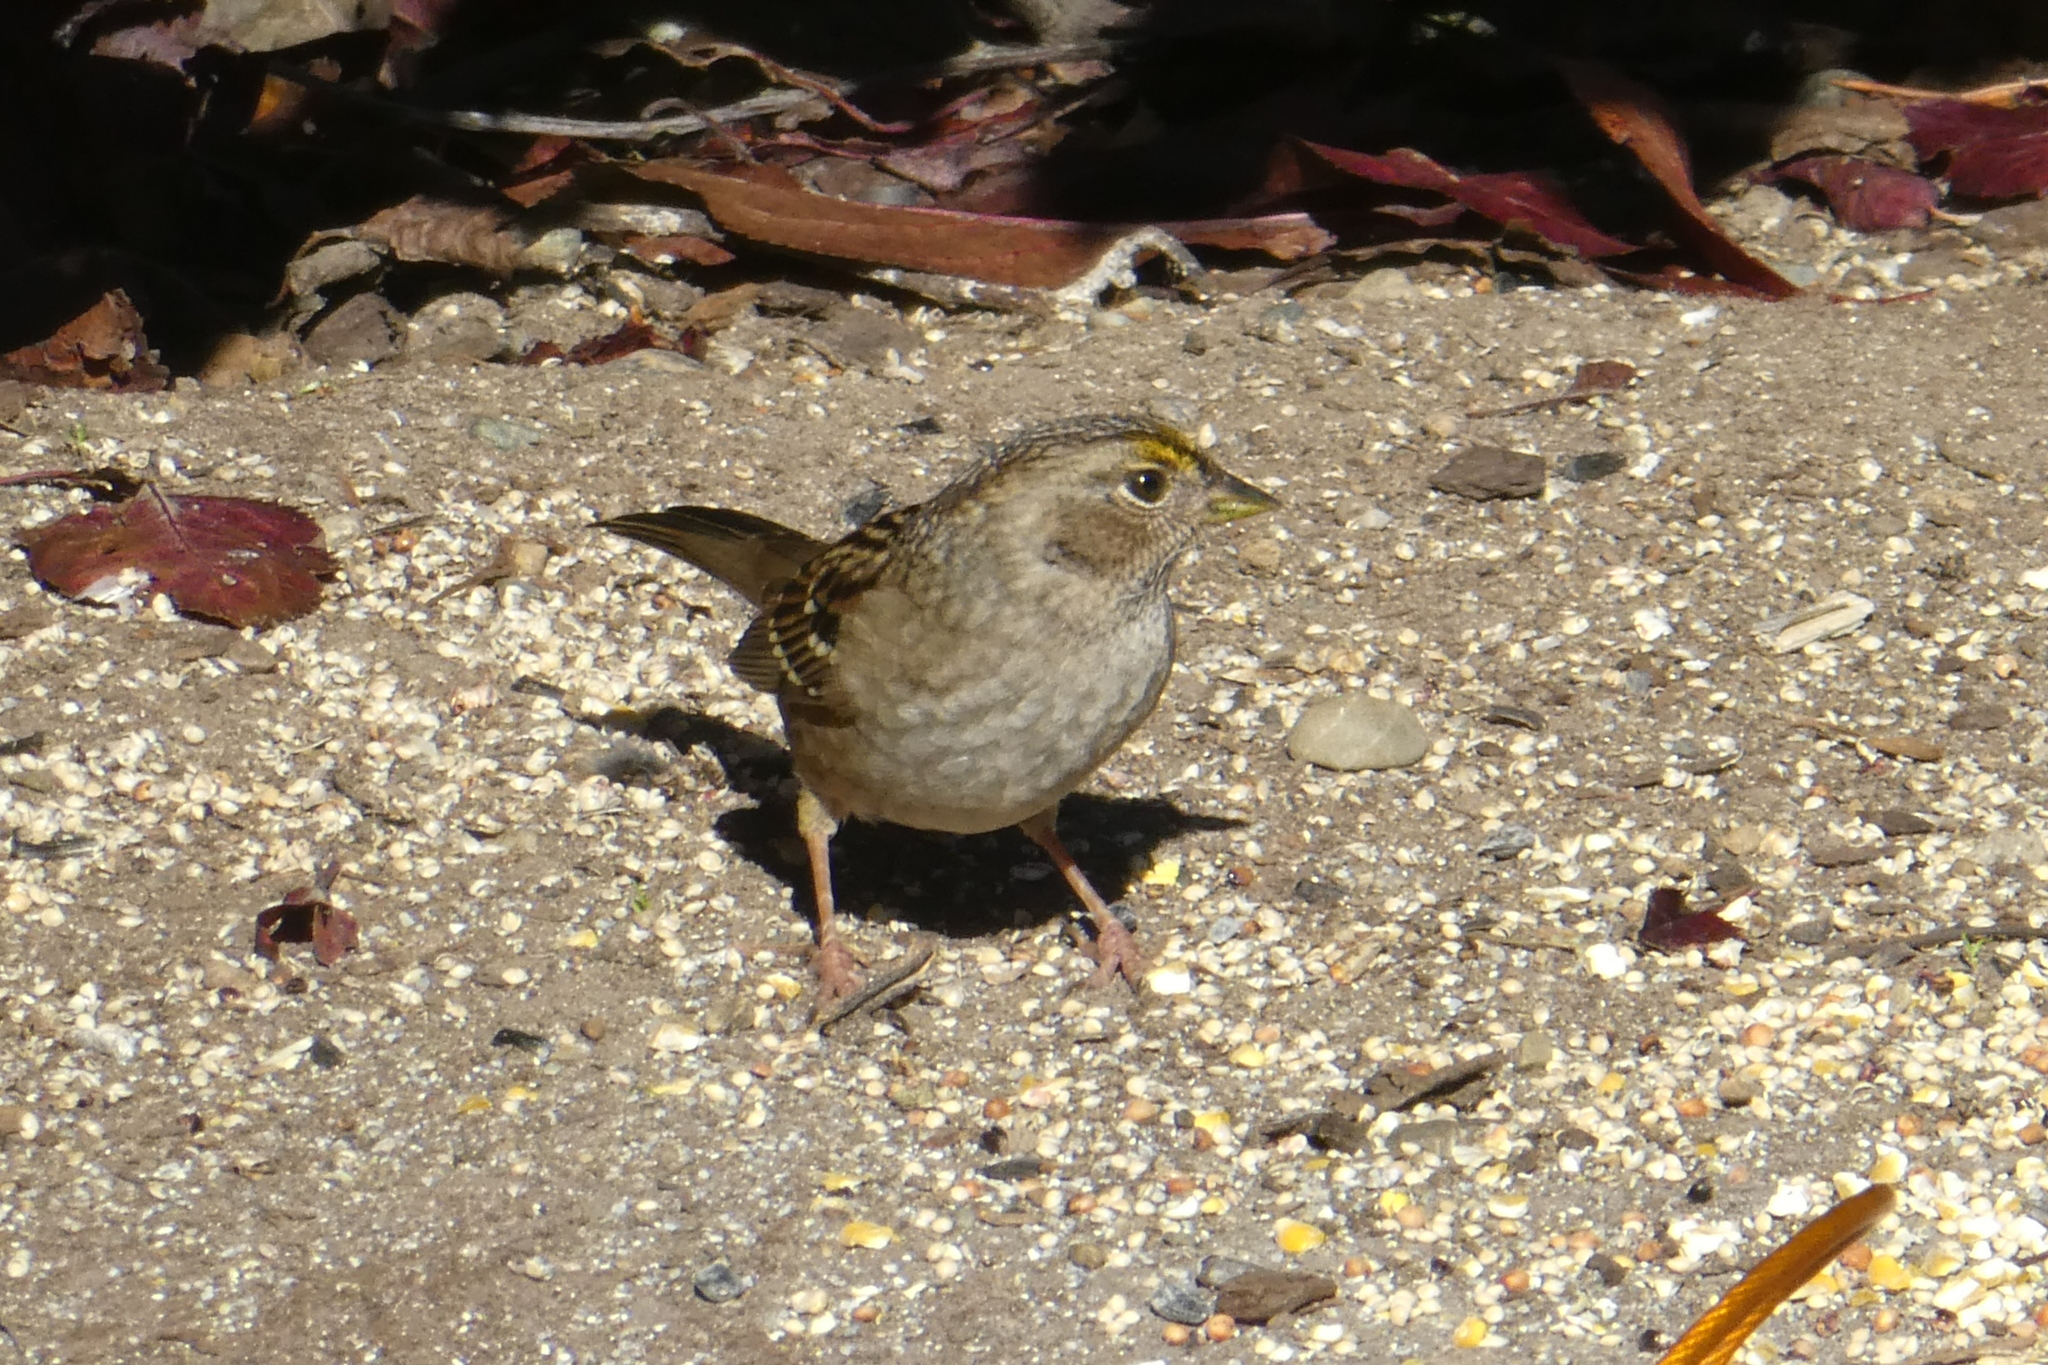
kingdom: Animalia
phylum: Chordata
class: Aves
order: Passeriformes
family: Passerellidae
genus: Zonotrichia
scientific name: Zonotrichia atricapilla
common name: Golden-crowned sparrow
